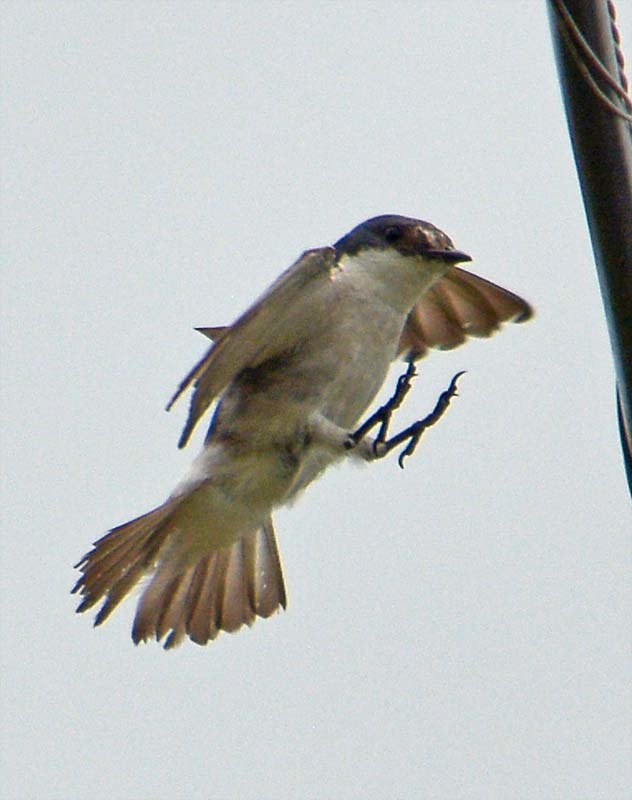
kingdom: Animalia
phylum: Chordata
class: Aves
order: Passeriformes
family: Hirundinidae
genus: Tachycineta
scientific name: Tachycineta albilinea
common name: Mangrove swallow
